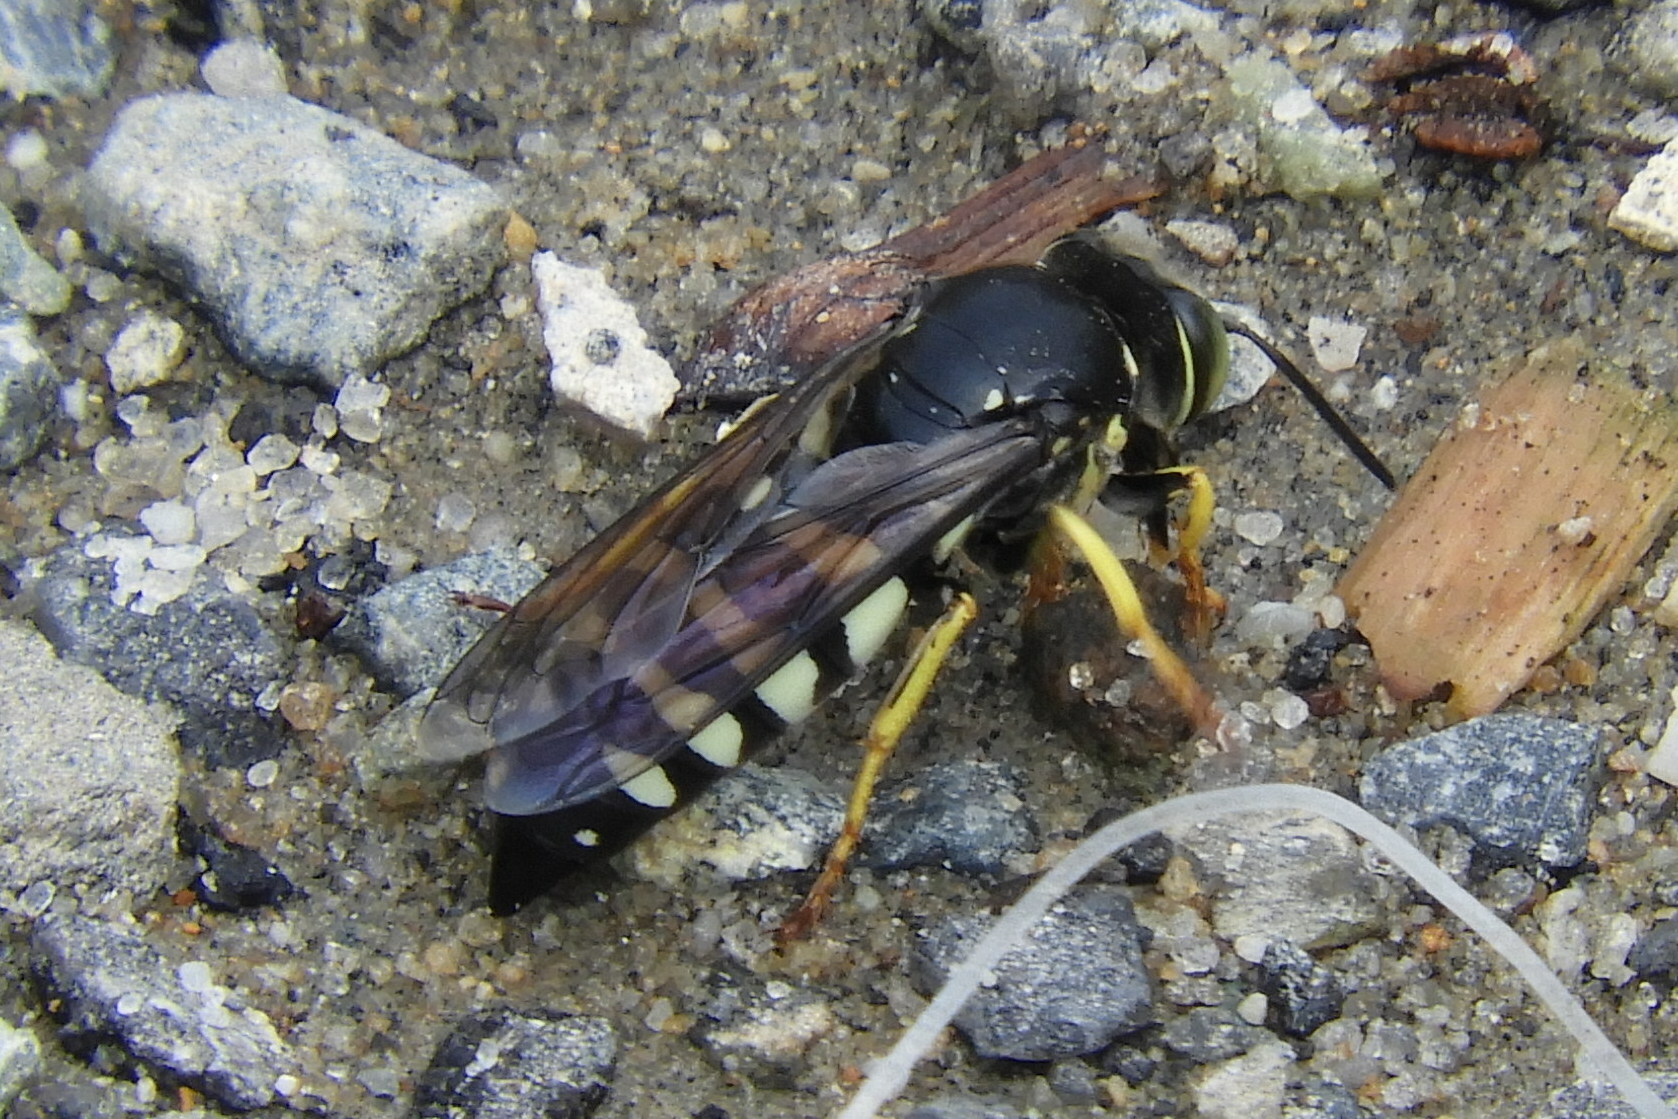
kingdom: Animalia
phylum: Arthropoda
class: Insecta
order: Hymenoptera
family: Crabronidae
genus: Bicyrtes
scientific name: Bicyrtes quadrifasciatus
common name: Four-banded stink bug hunter wasp
